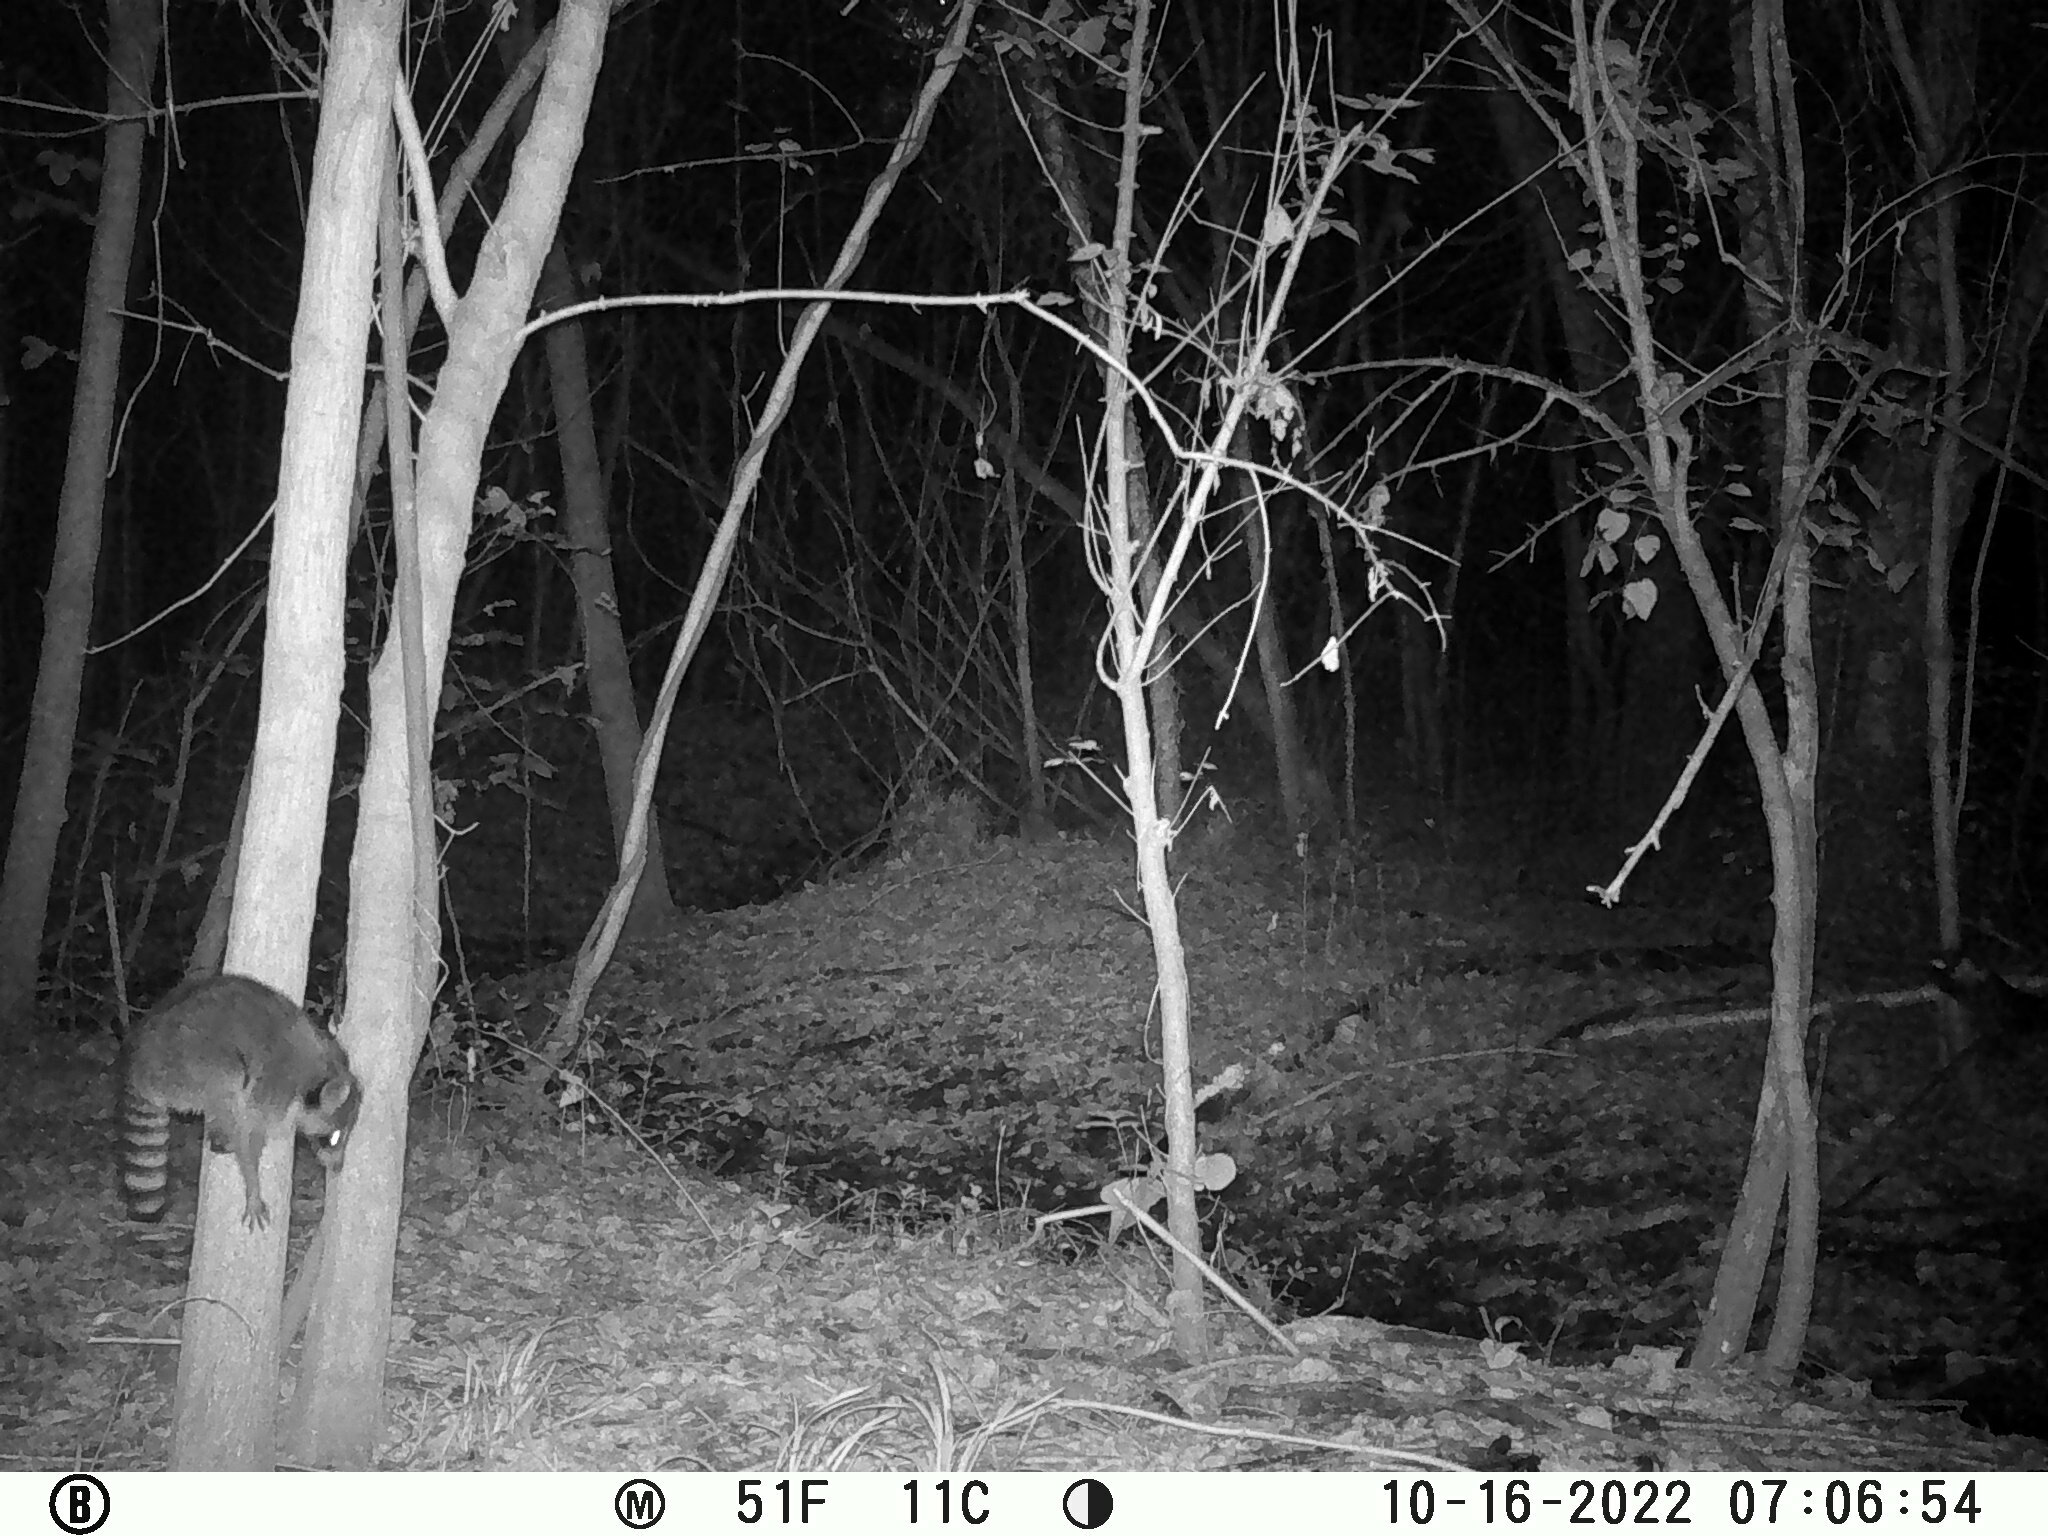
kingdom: Animalia
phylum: Chordata
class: Mammalia
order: Carnivora
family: Procyonidae
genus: Procyon
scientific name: Procyon lotor
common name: Raccoon
